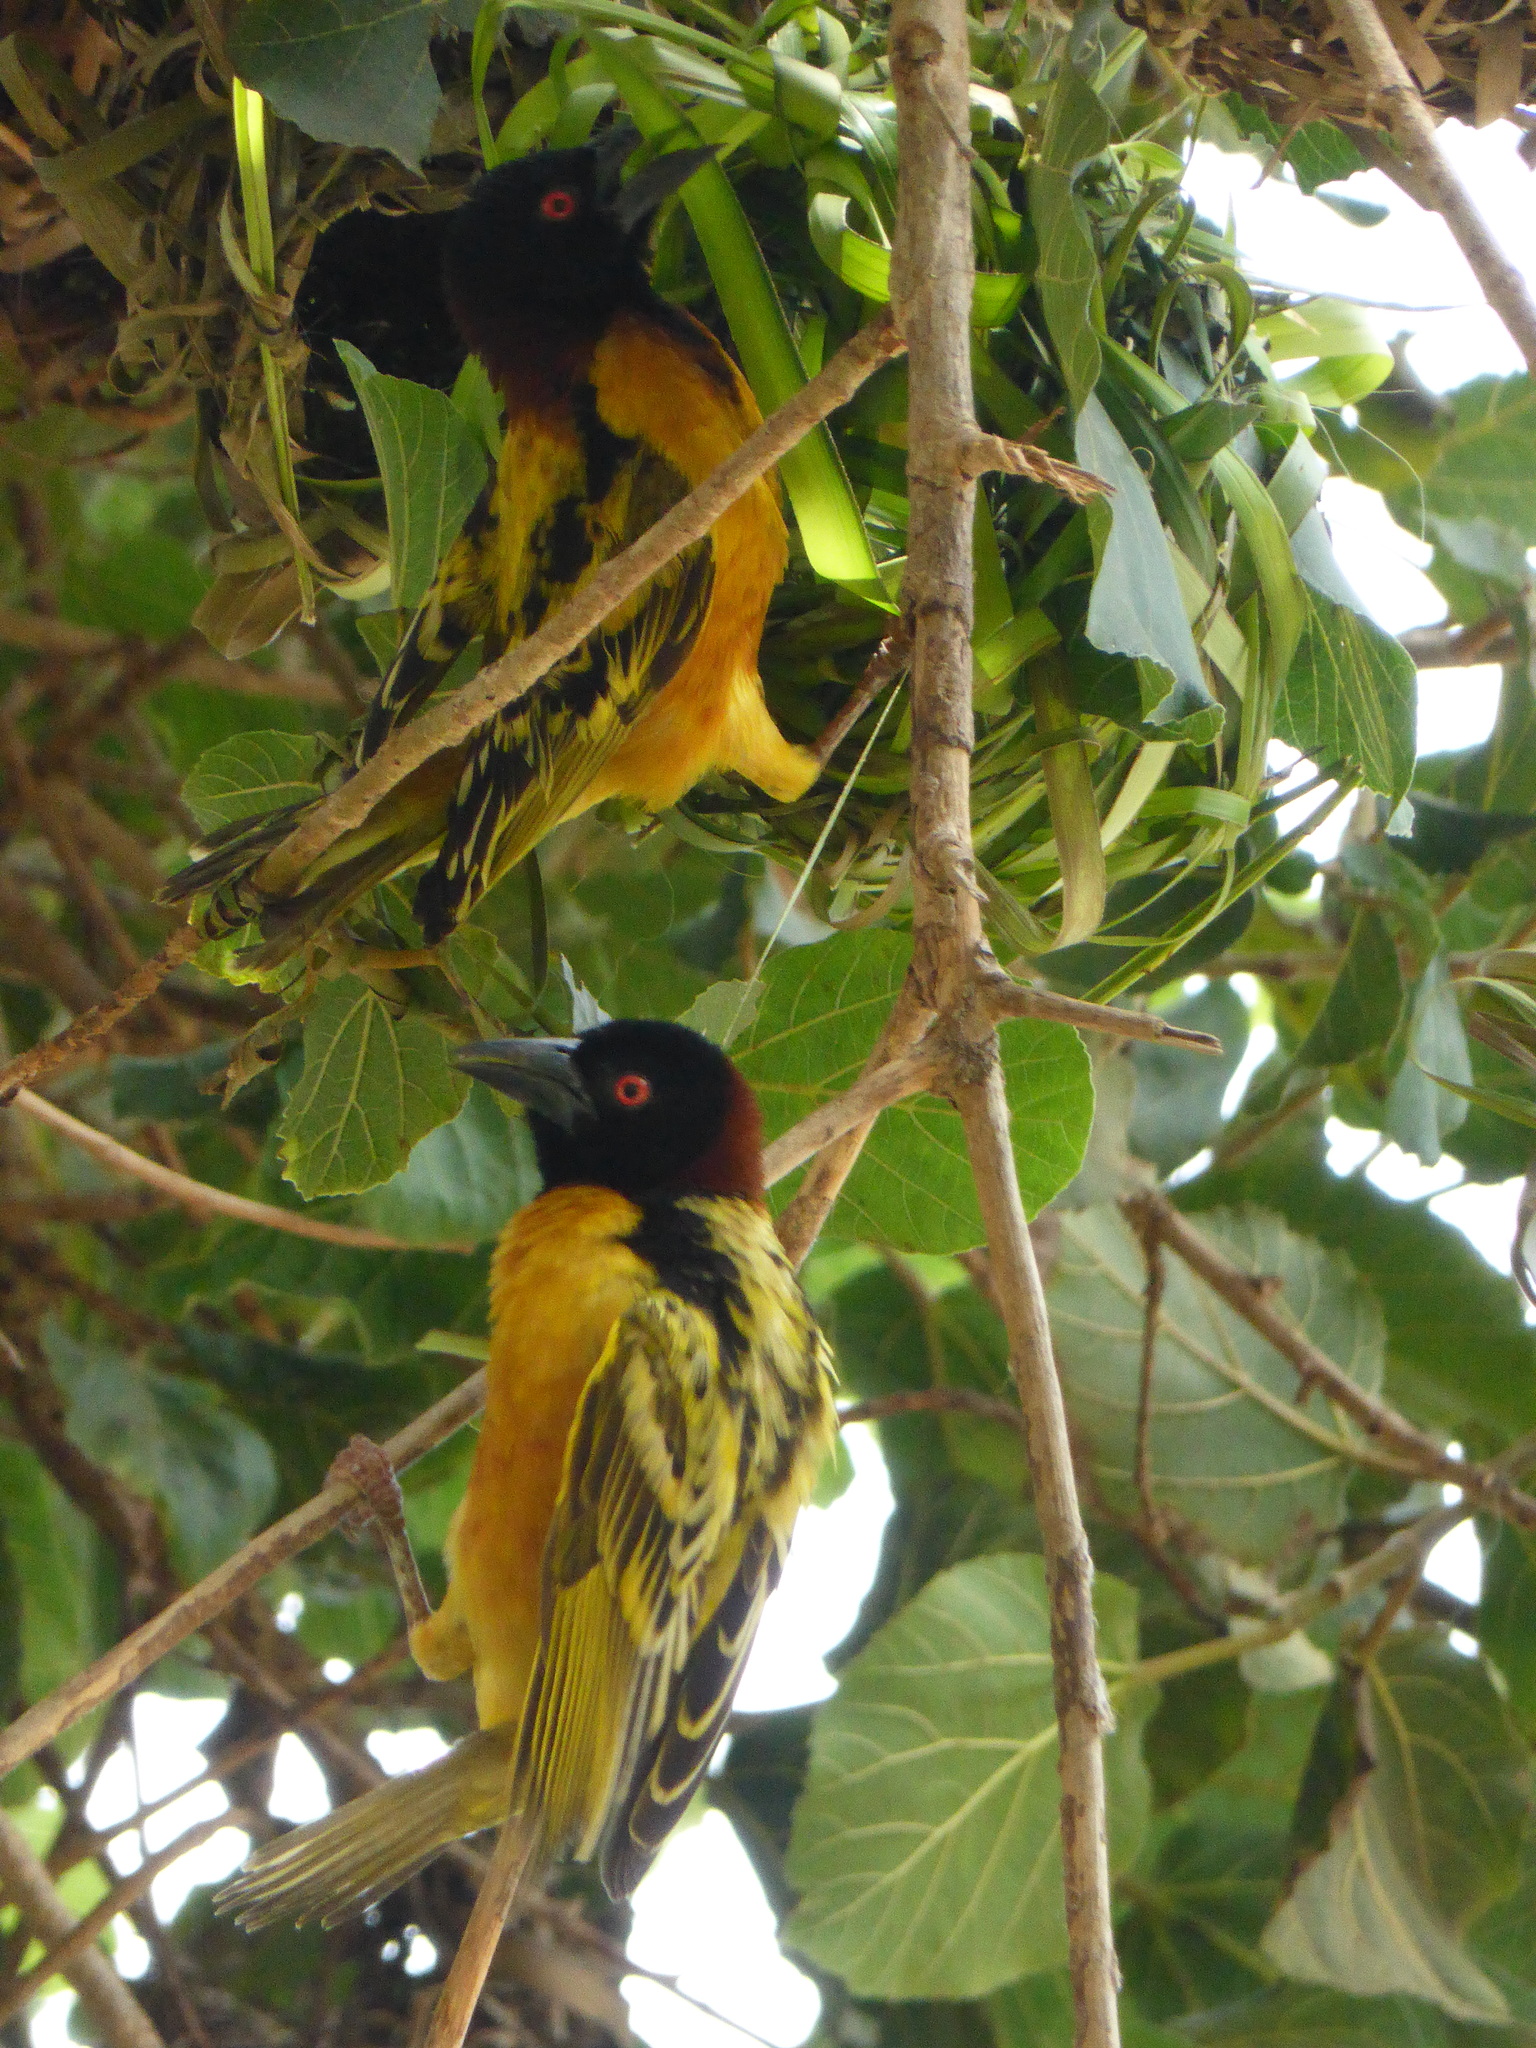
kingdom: Animalia
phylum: Chordata
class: Aves
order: Passeriformes
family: Ploceidae
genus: Ploceus
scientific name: Ploceus cucullatus
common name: Village weaver
